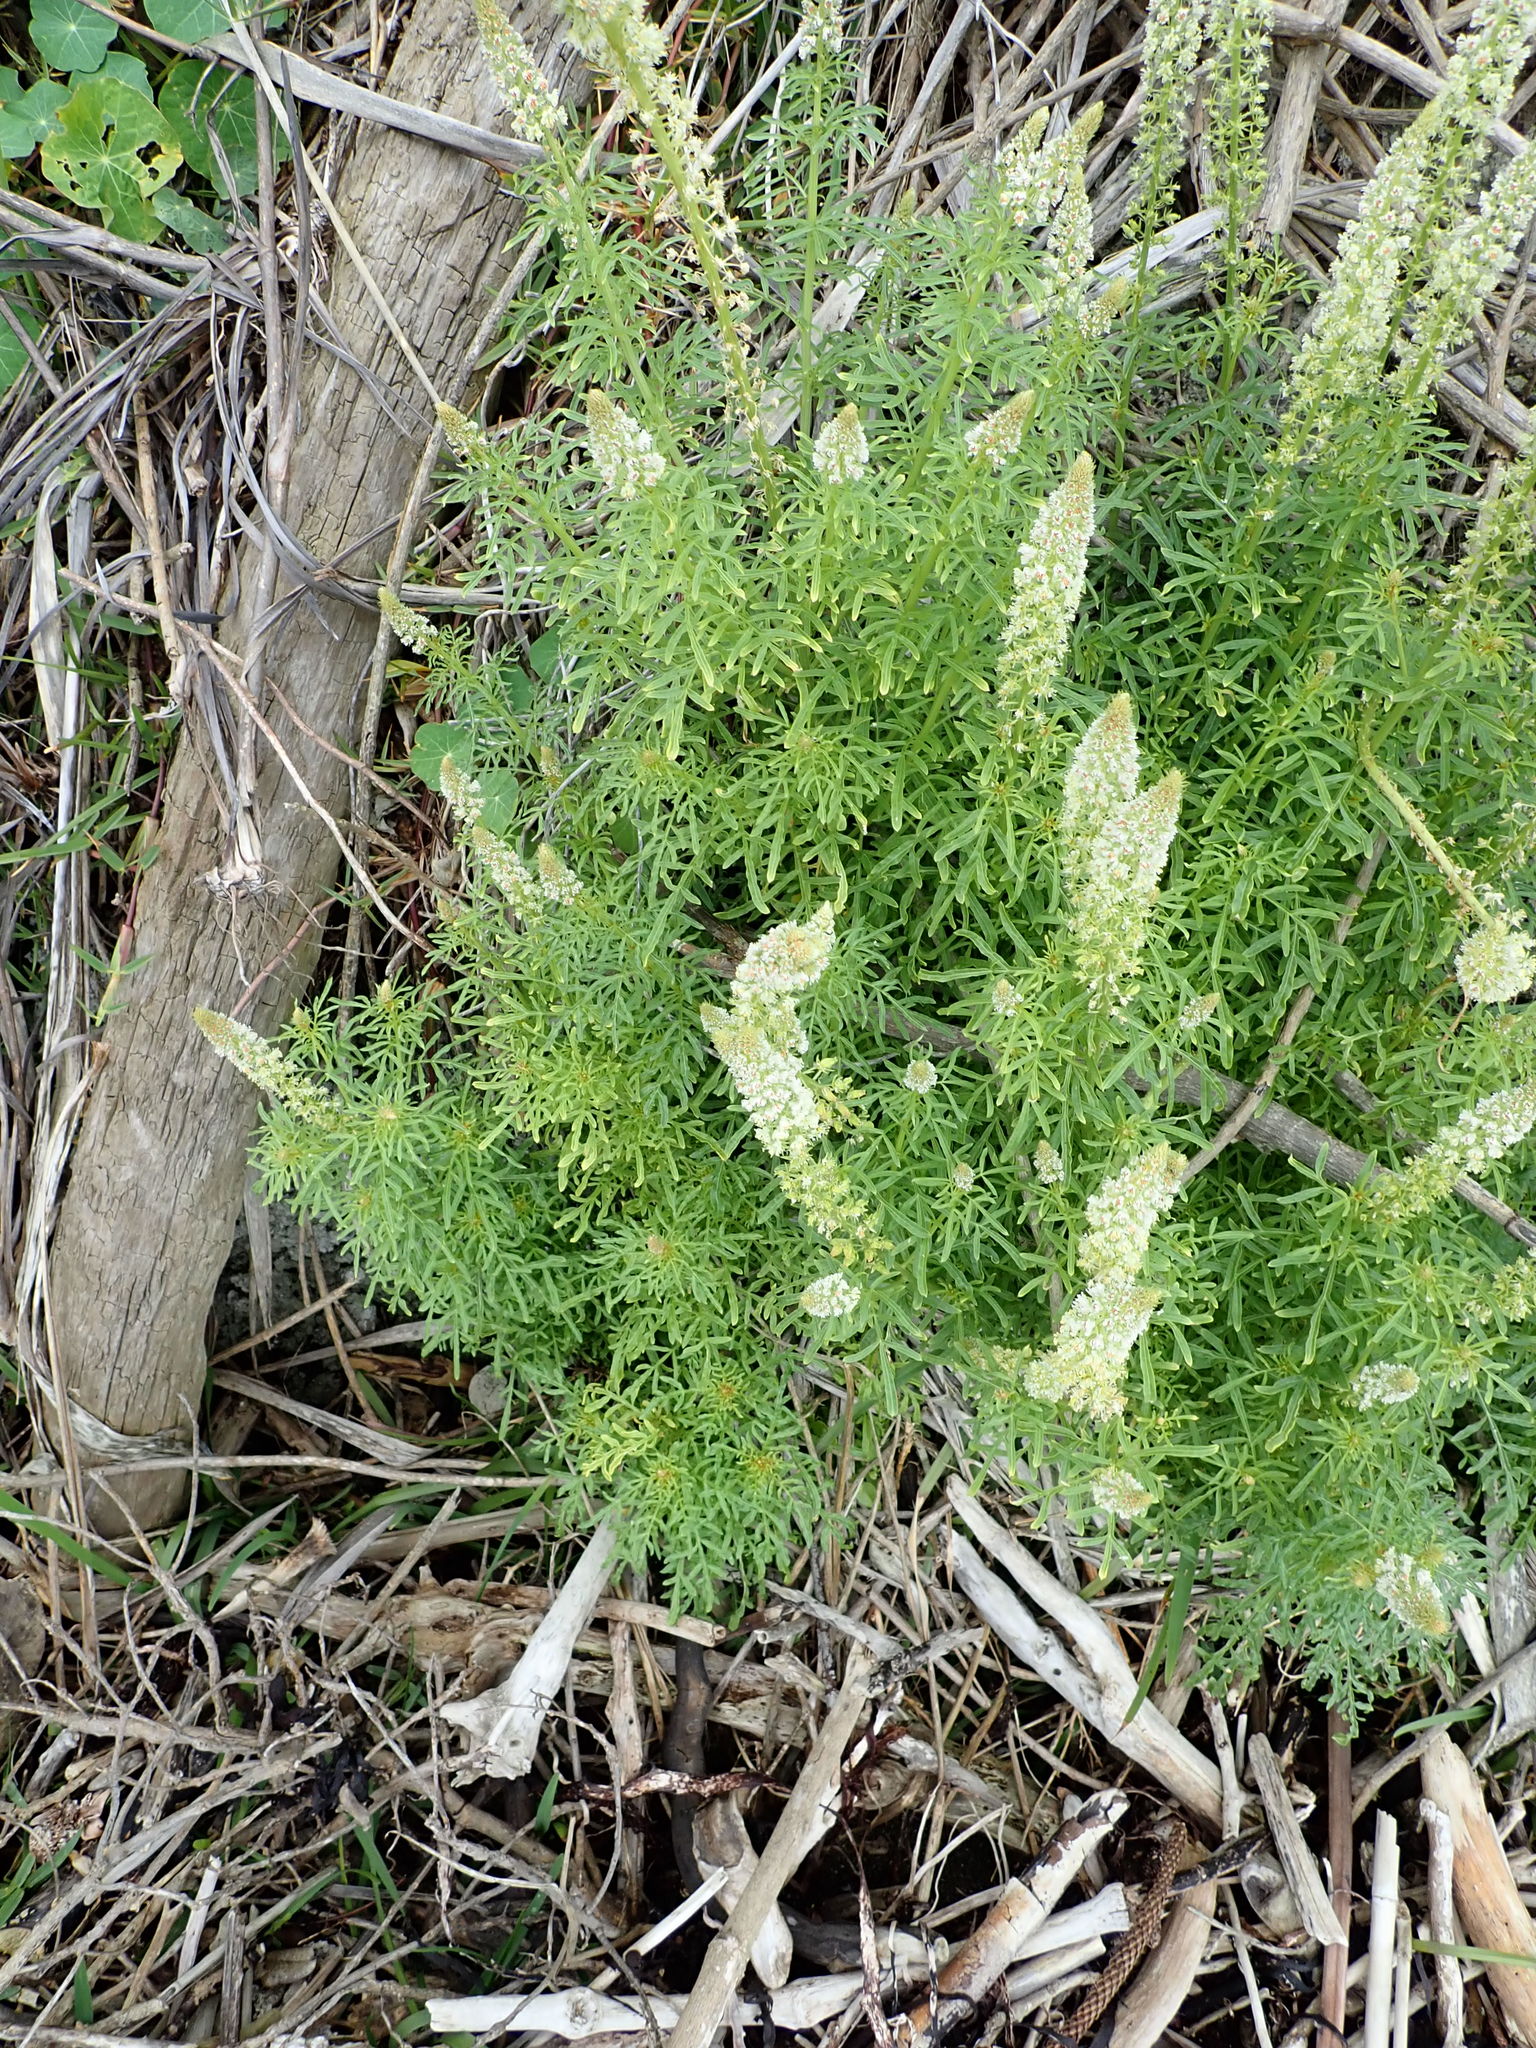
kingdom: Plantae
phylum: Tracheophyta
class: Magnoliopsida
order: Brassicales
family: Resedaceae
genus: Reseda
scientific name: Reseda alba
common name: White mignonette
